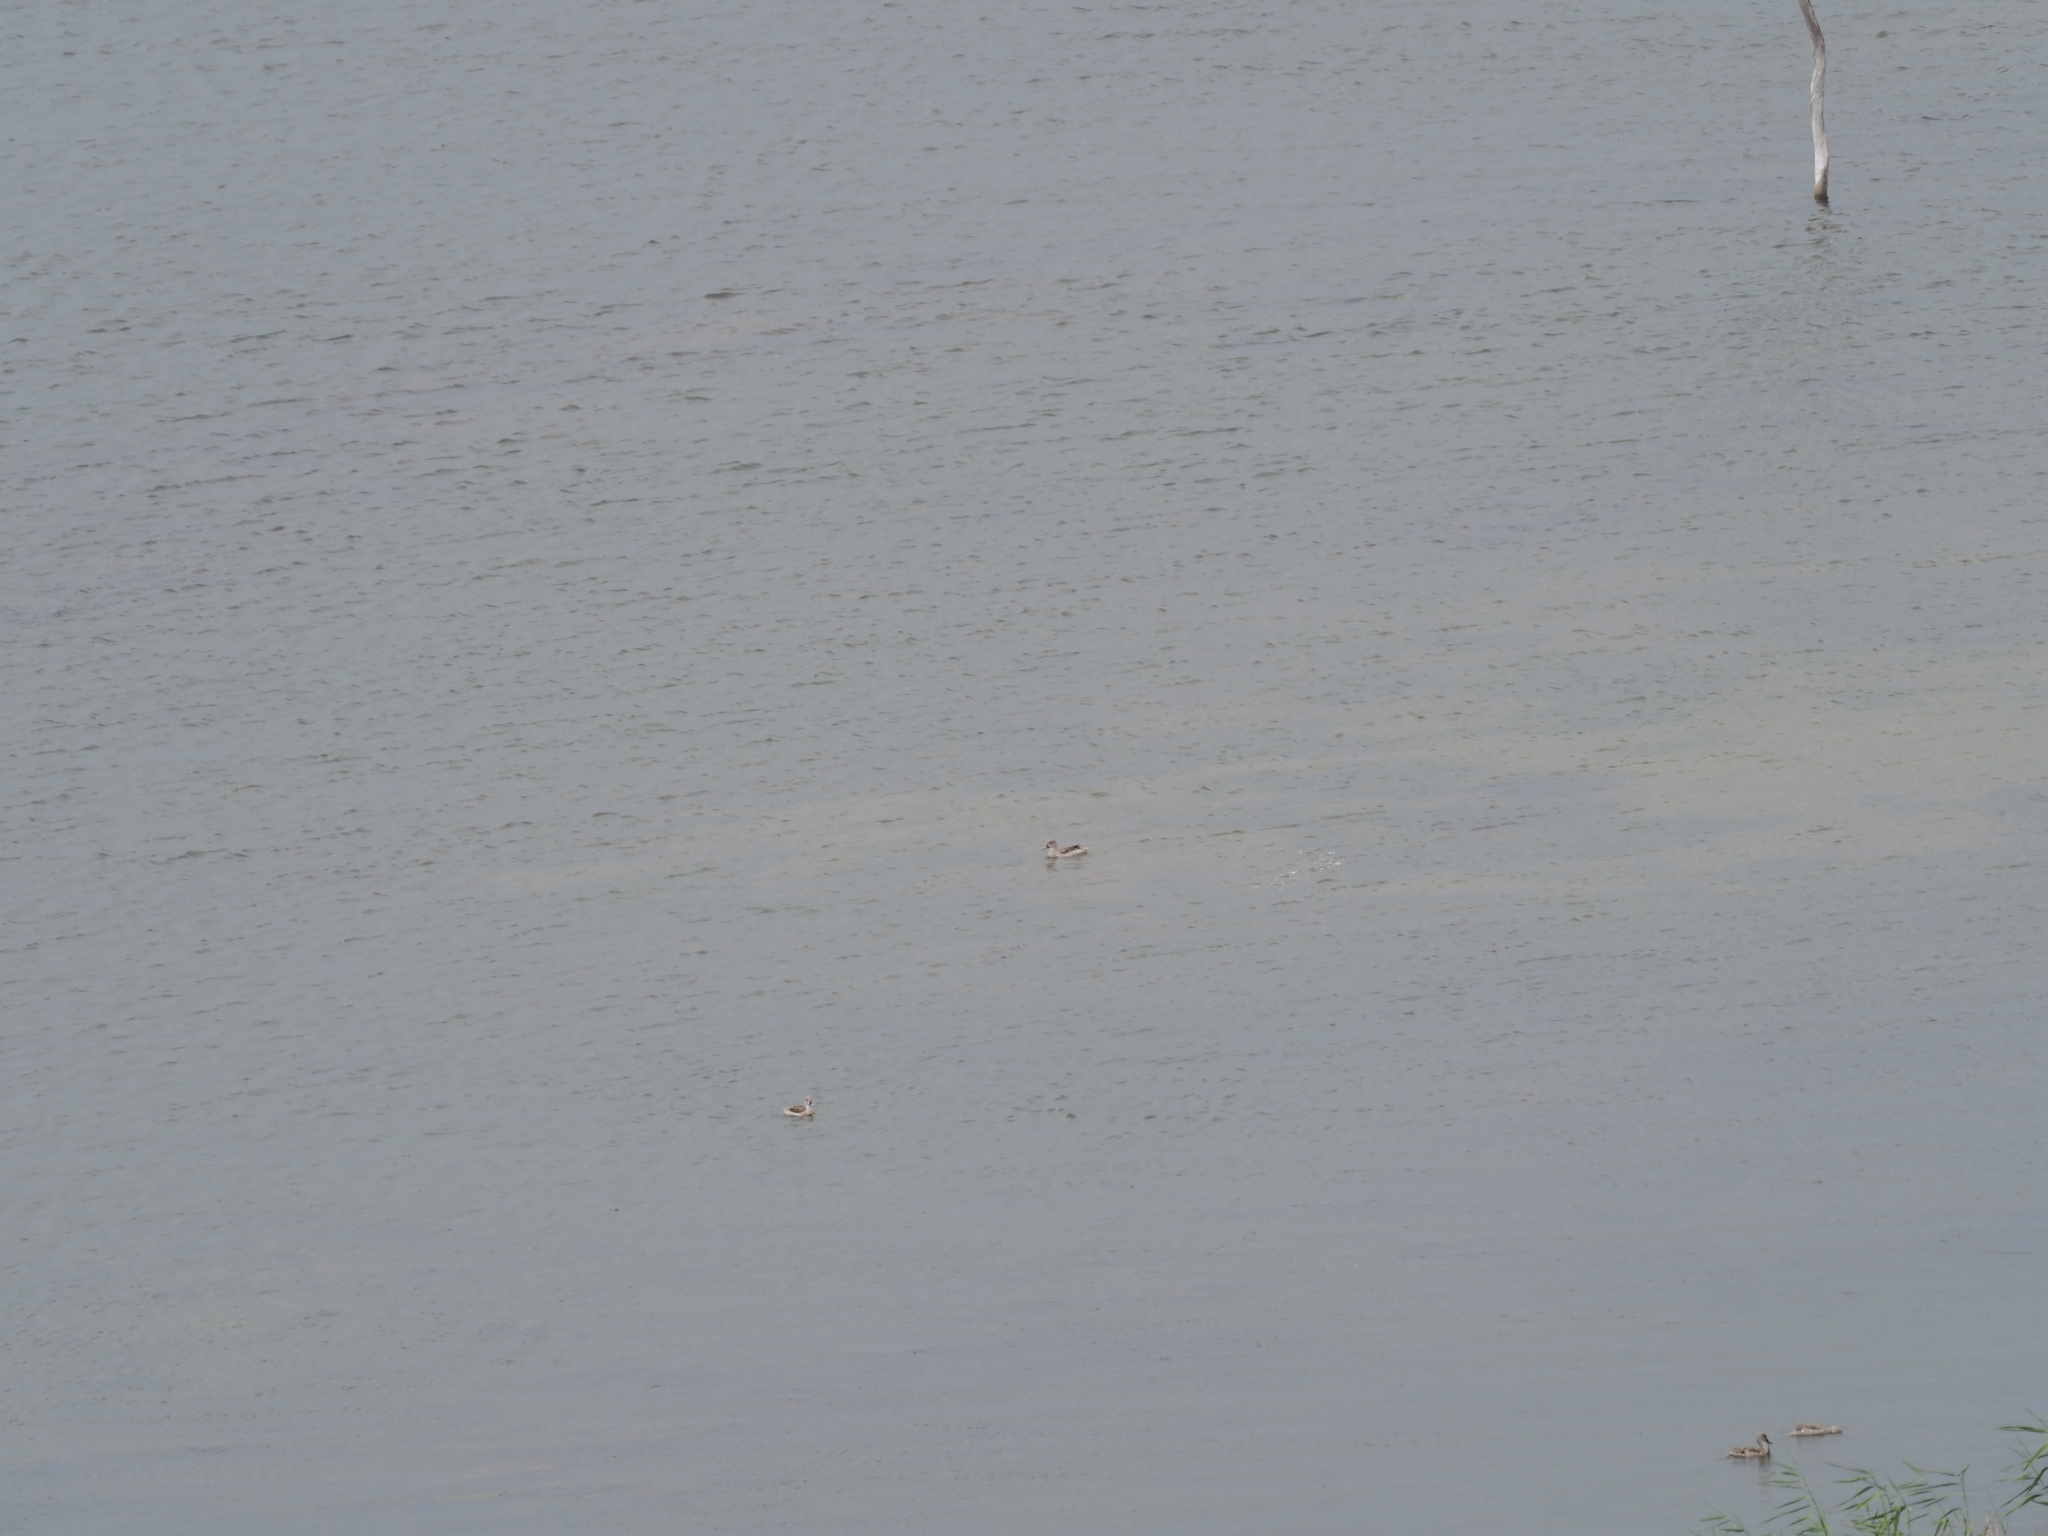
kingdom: Animalia
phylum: Chordata
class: Aves
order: Anseriformes
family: Anatidae
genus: Anas
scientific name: Anas capensis
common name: Cape teal
